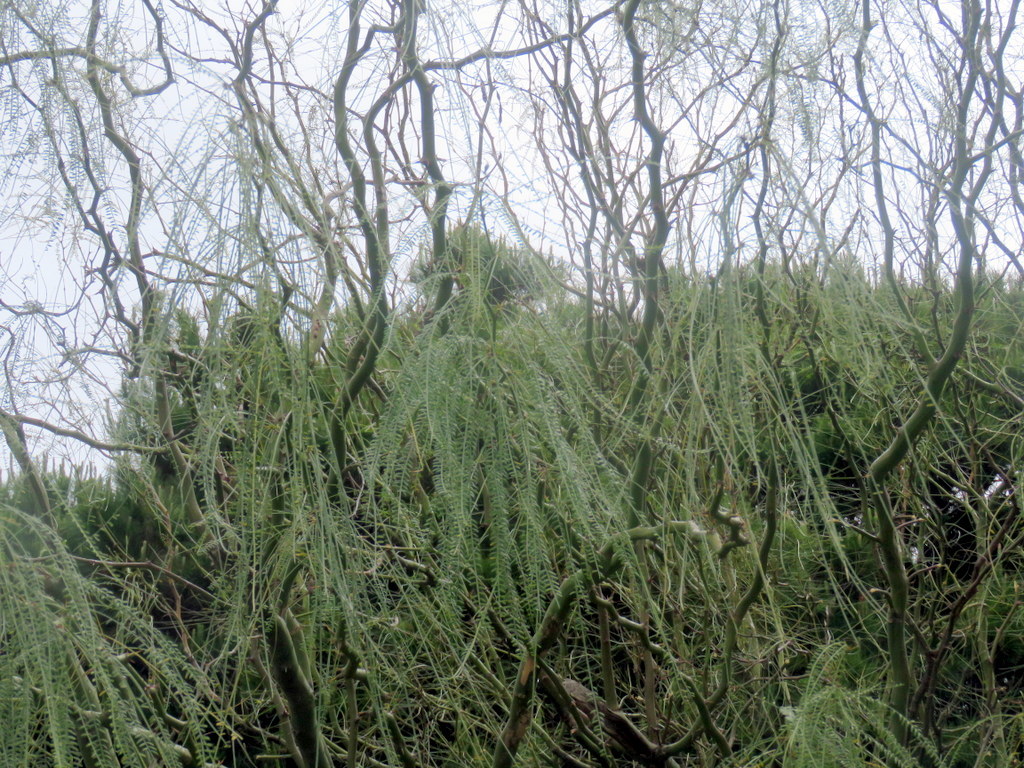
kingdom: Plantae
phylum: Tracheophyta
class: Magnoliopsida
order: Fabales
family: Fabaceae
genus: Parkinsonia
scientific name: Parkinsonia aculeata
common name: Jerusalem thorn
